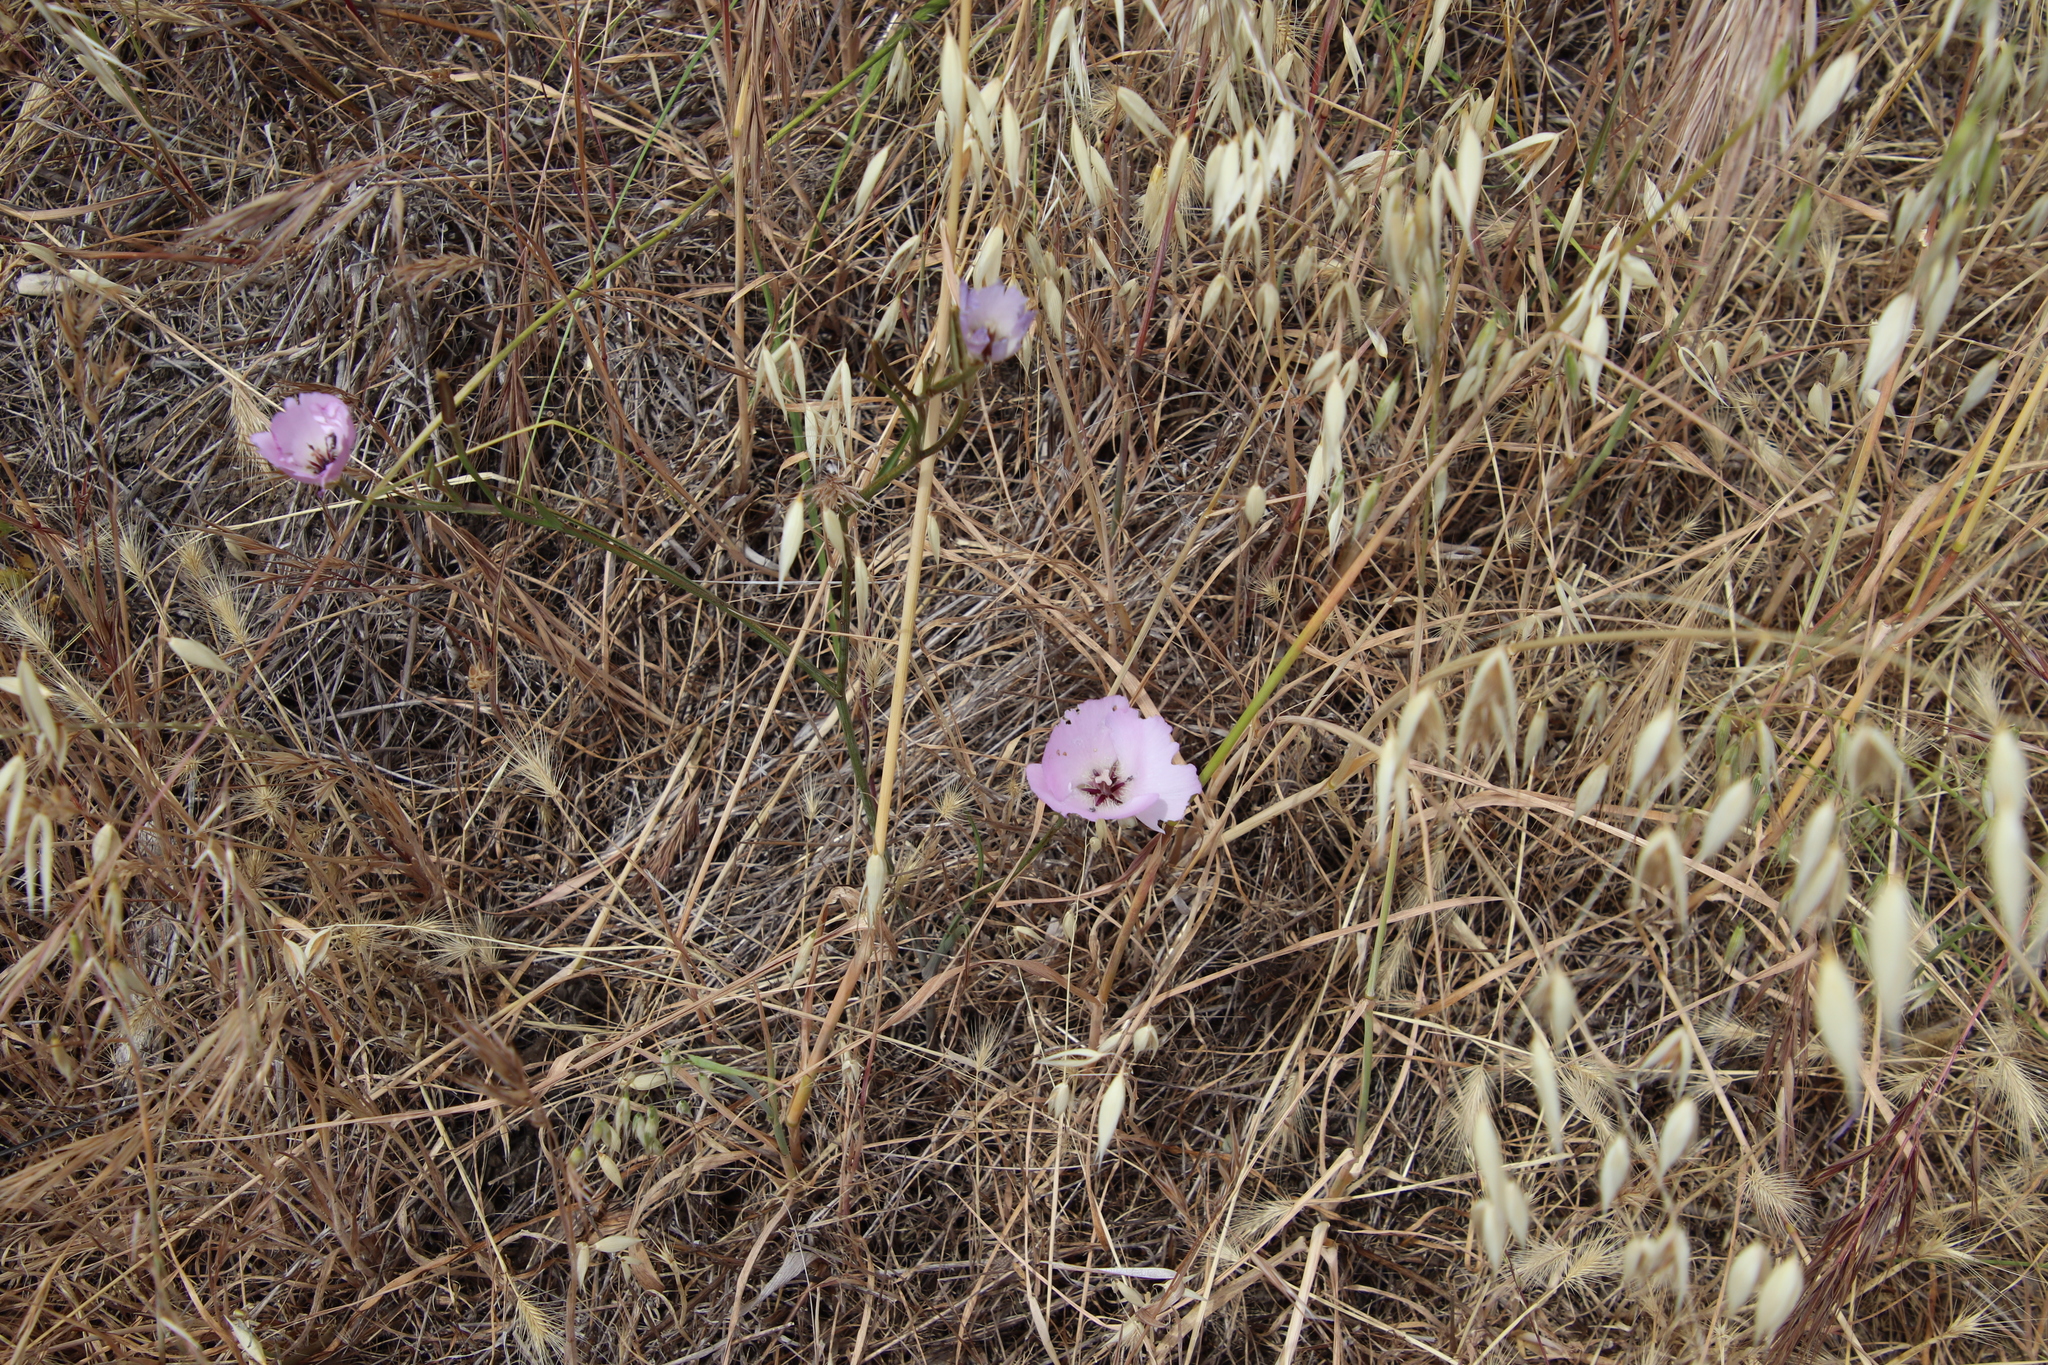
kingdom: Plantae
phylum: Tracheophyta
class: Liliopsida
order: Liliales
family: Liliaceae
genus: Calochortus
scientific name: Calochortus splendens
